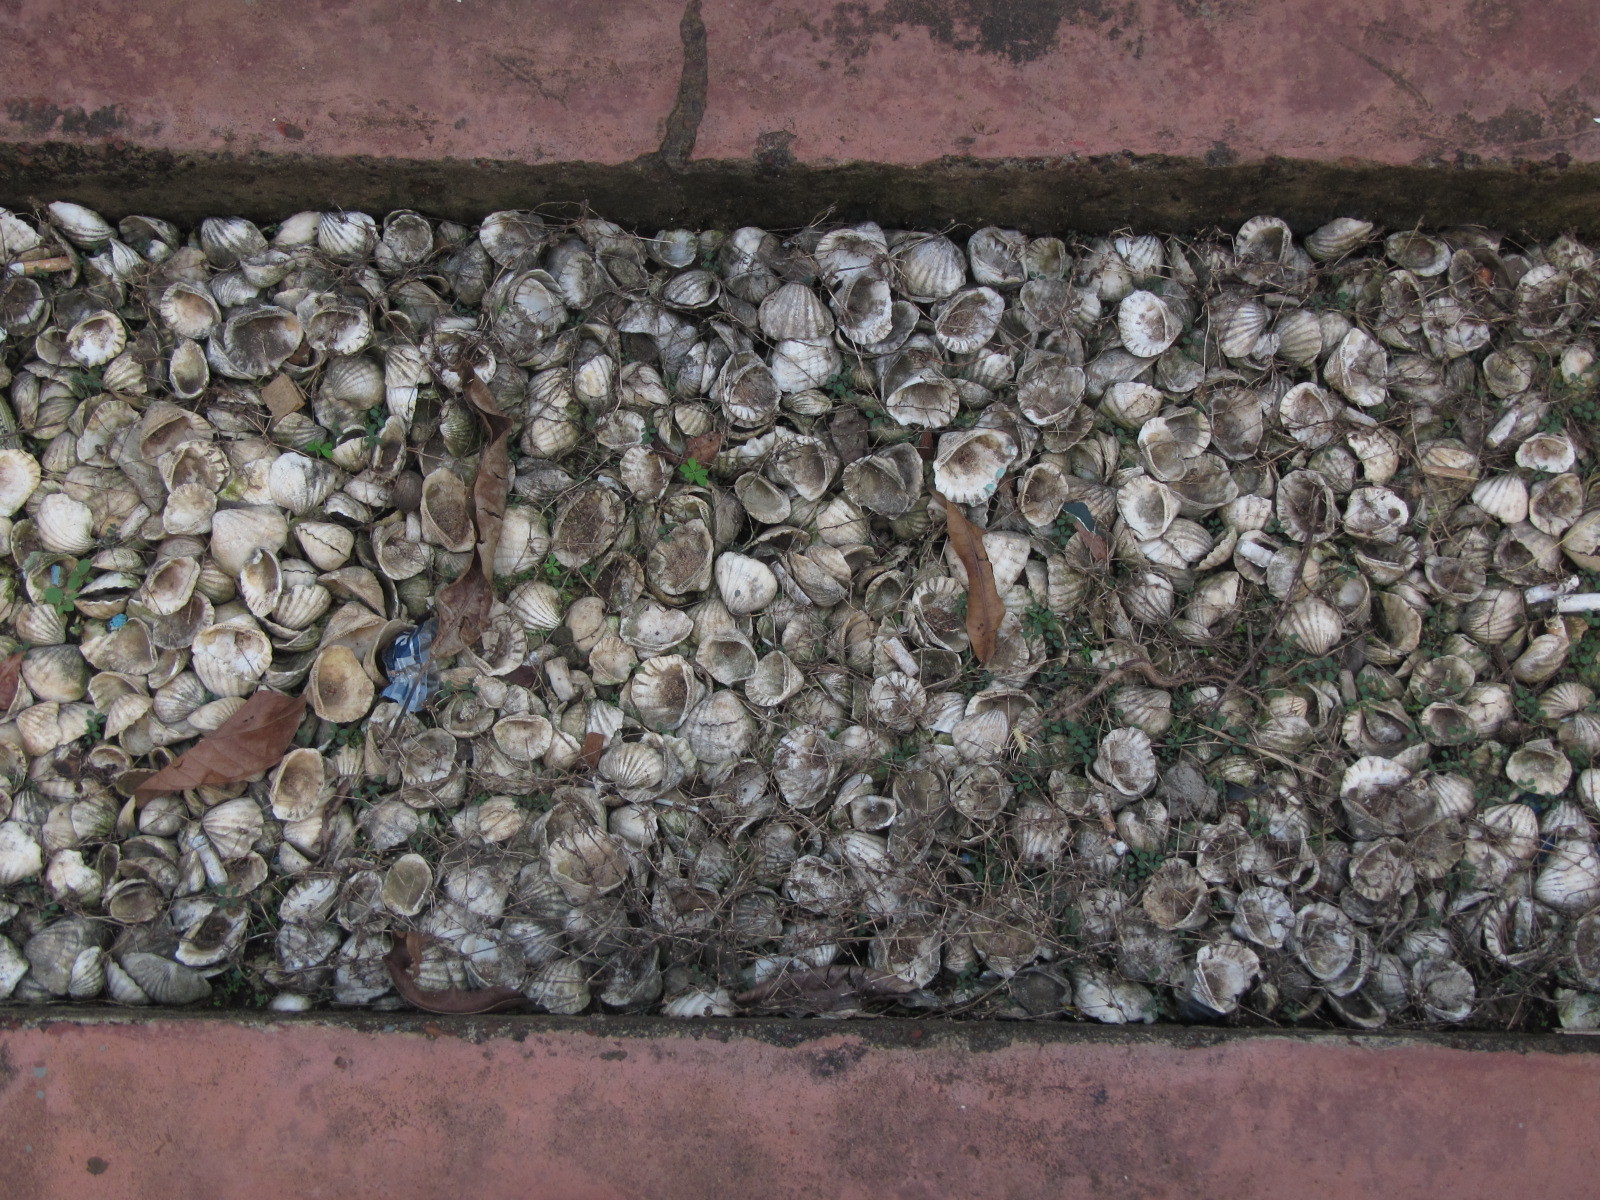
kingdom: Animalia
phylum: Mollusca
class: Bivalvia
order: Arcida
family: Arcidae
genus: Senilia
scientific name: Senilia senilis
